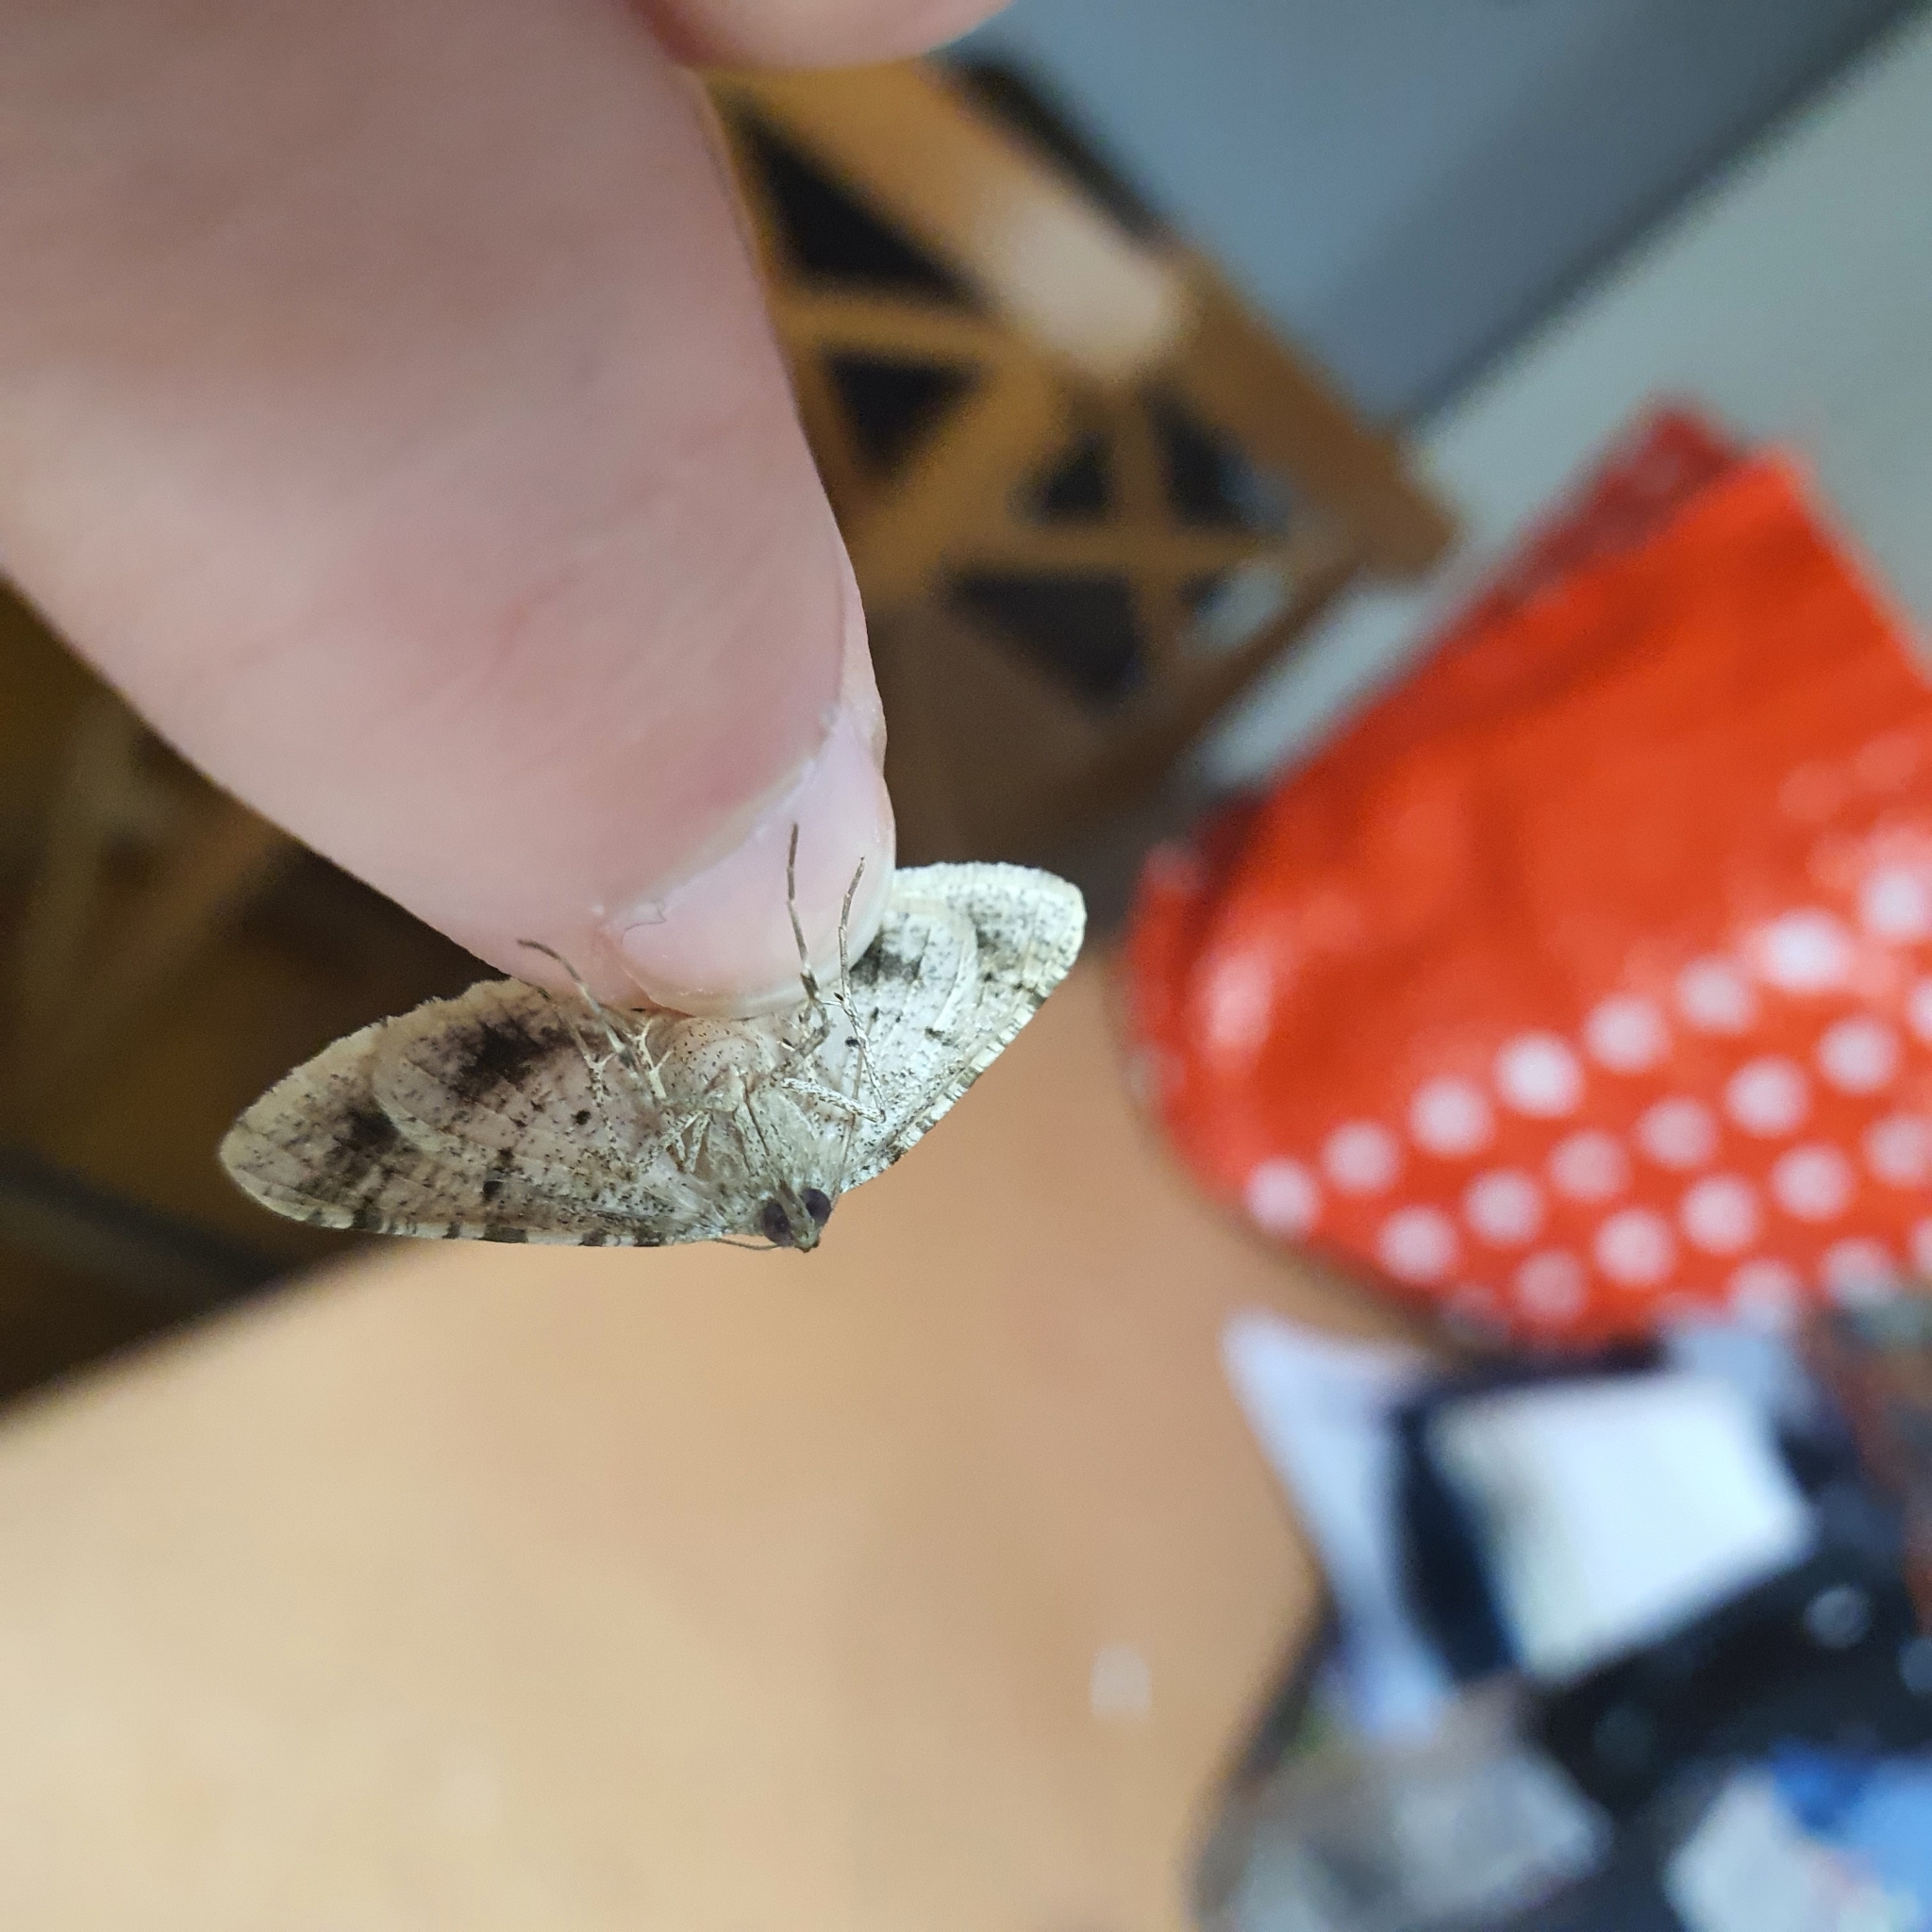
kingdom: Animalia
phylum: Arthropoda
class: Insecta
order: Lepidoptera
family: Geometridae
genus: Syneora
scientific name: Syneora hemeropa
